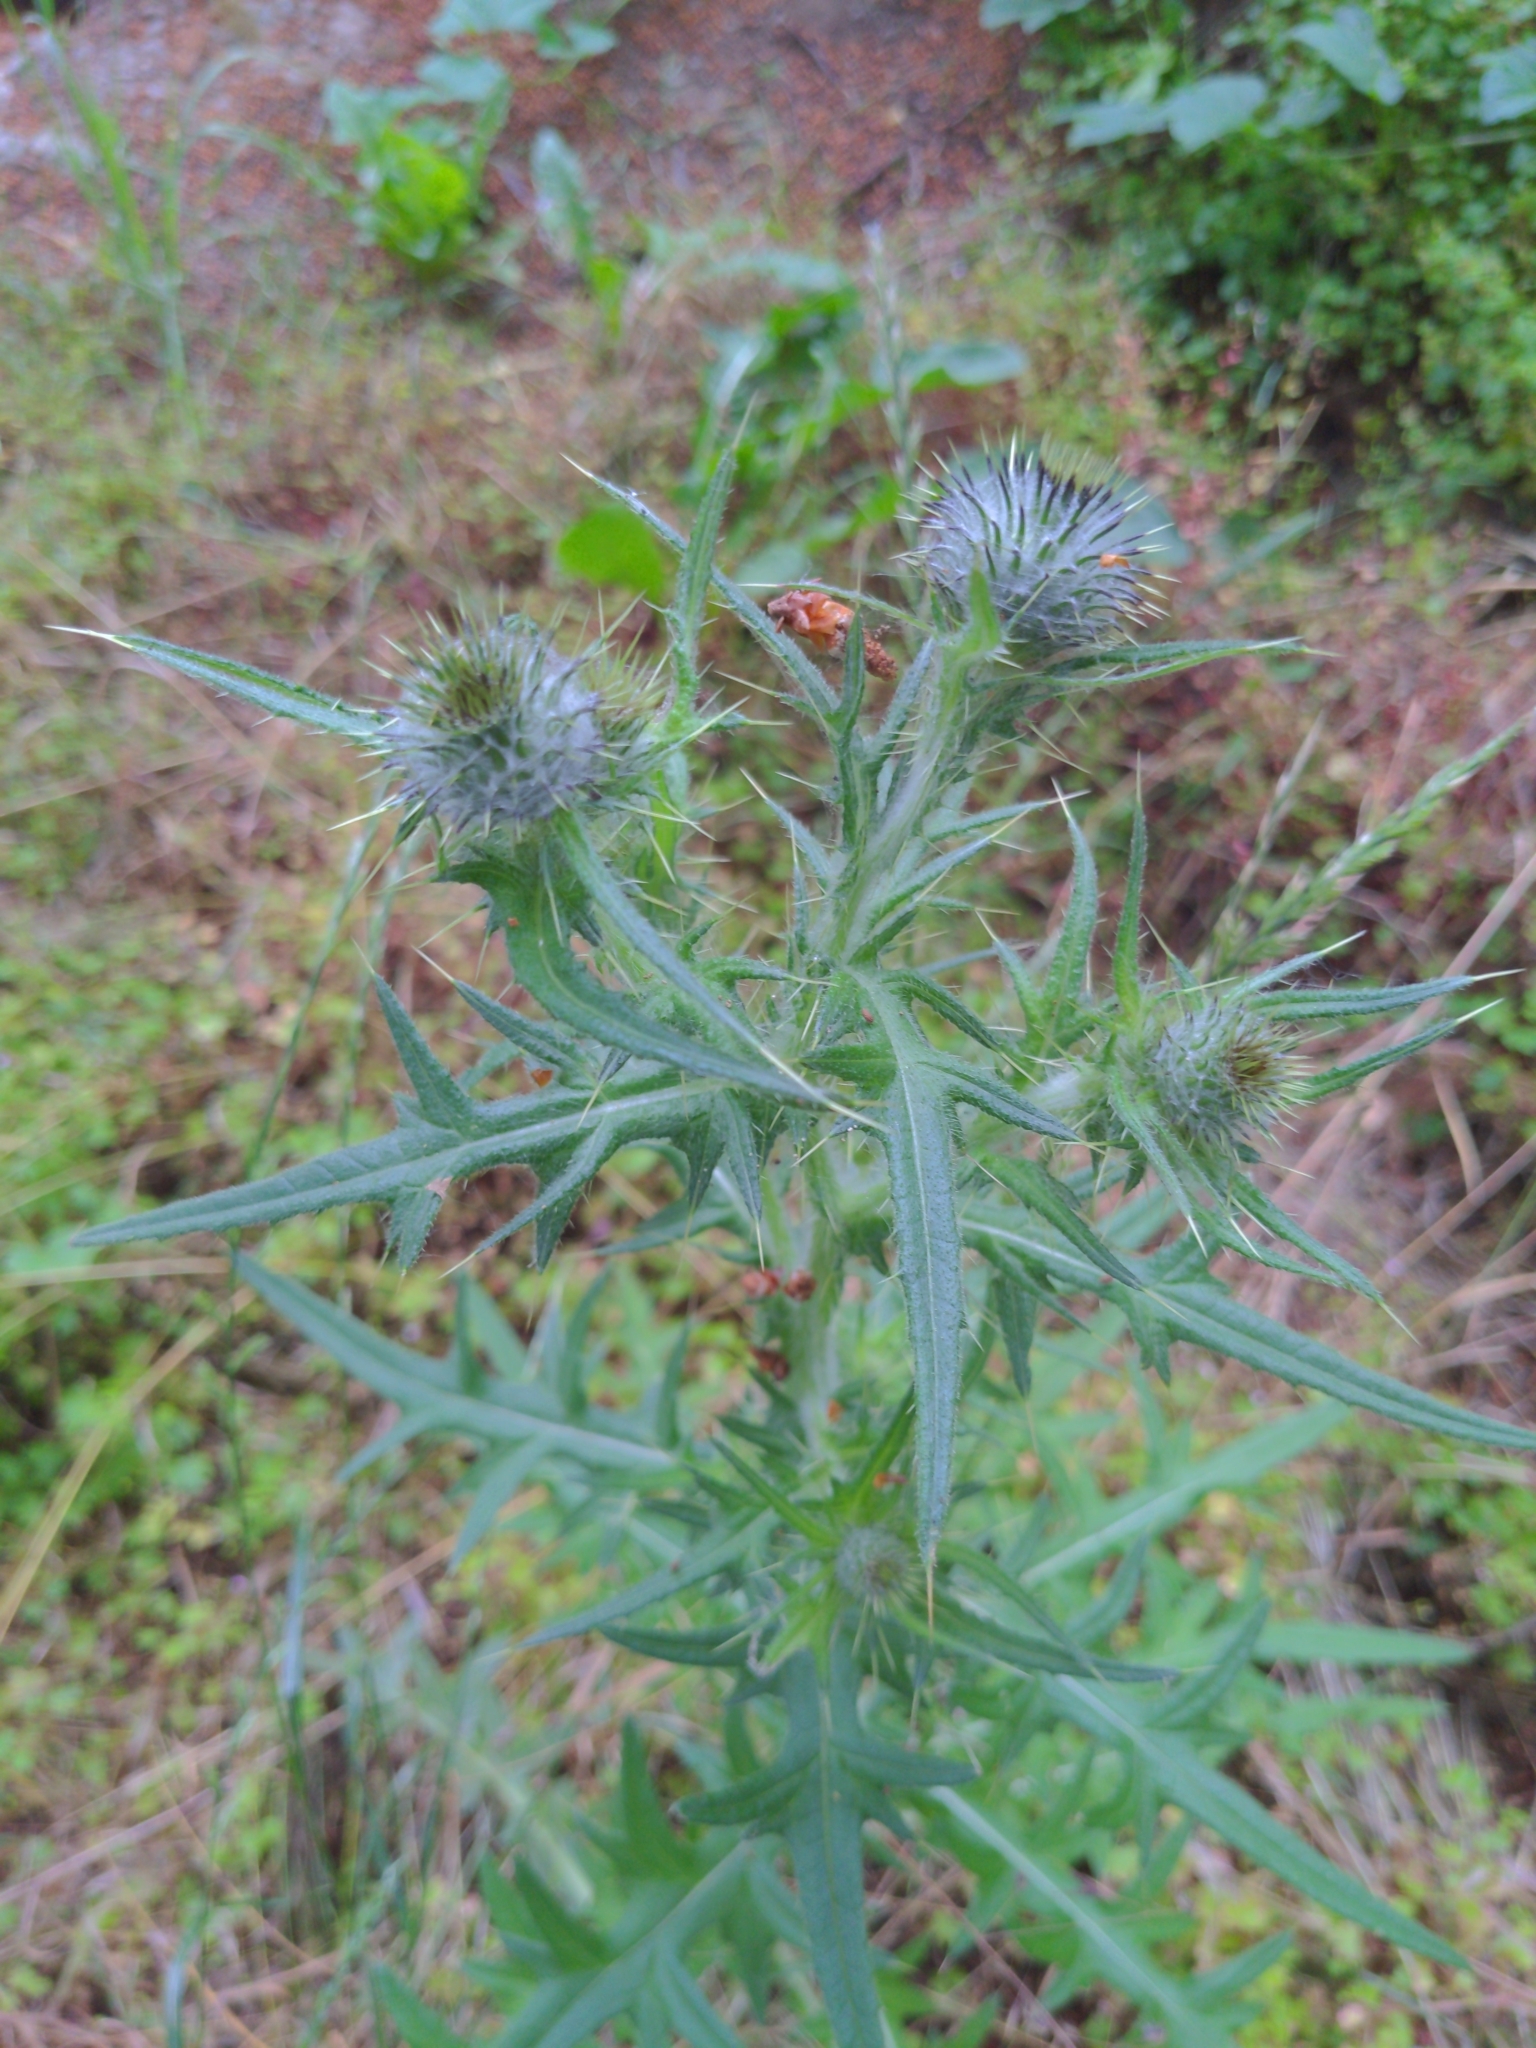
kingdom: Plantae
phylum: Tracheophyta
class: Magnoliopsida
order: Asterales
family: Asteraceae
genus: Cirsium
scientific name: Cirsium vulgare
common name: Bull thistle
